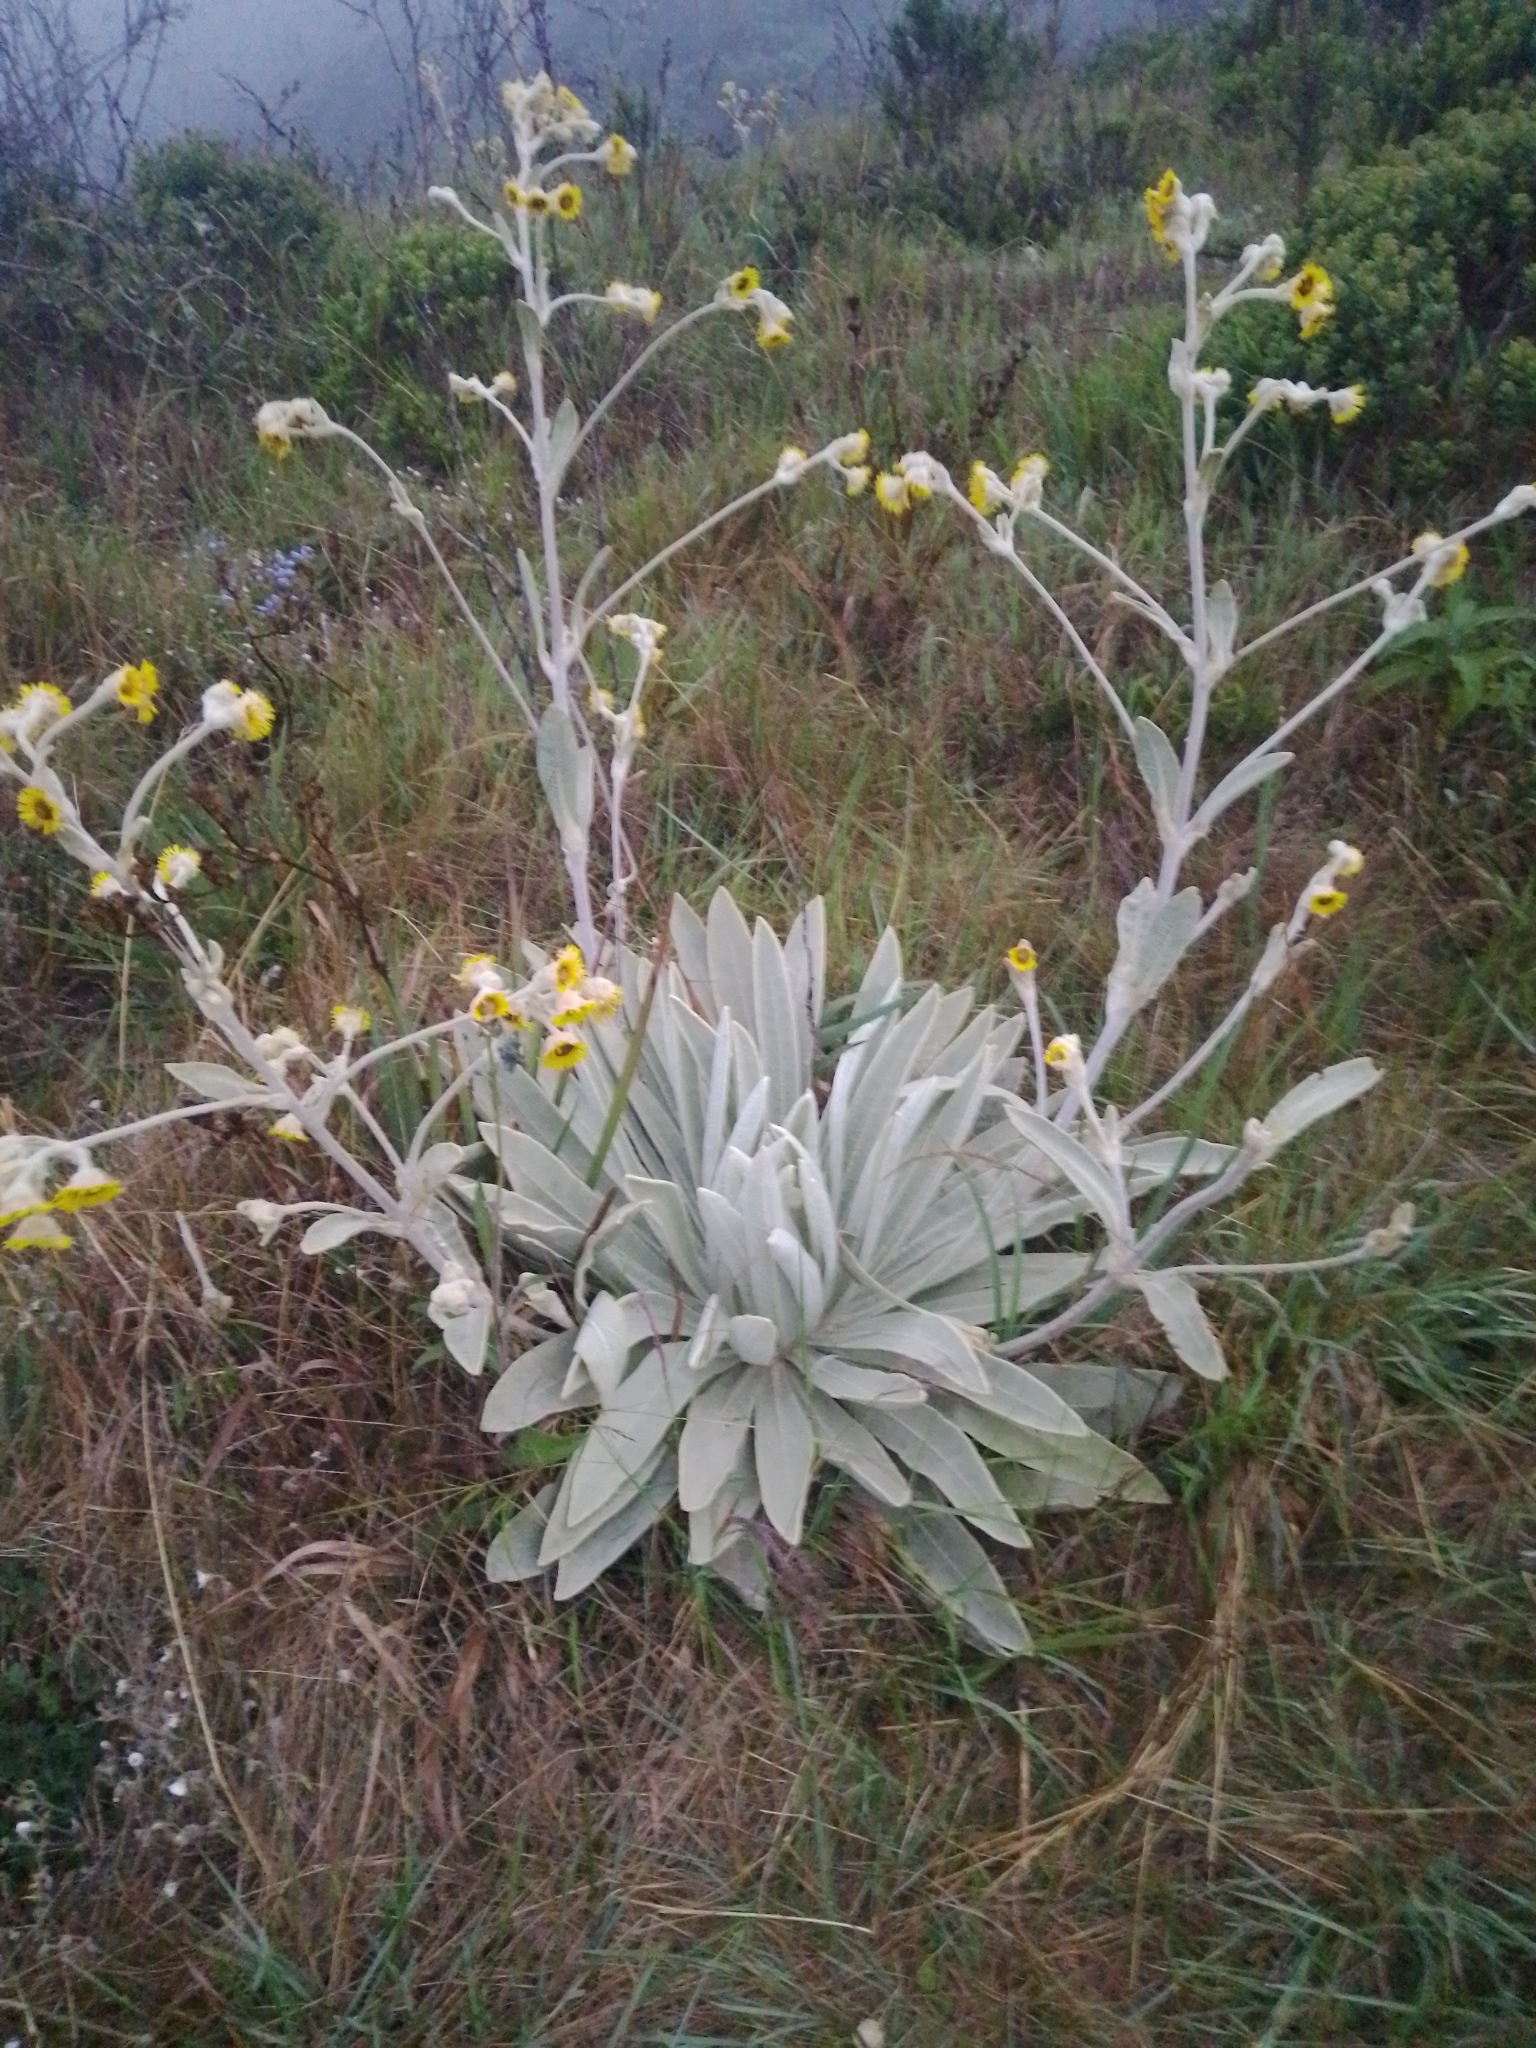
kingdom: Plantae
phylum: Tracheophyta
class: Magnoliopsida
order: Asterales
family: Asteraceae
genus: Espeletia
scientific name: Espeletia schultzii
